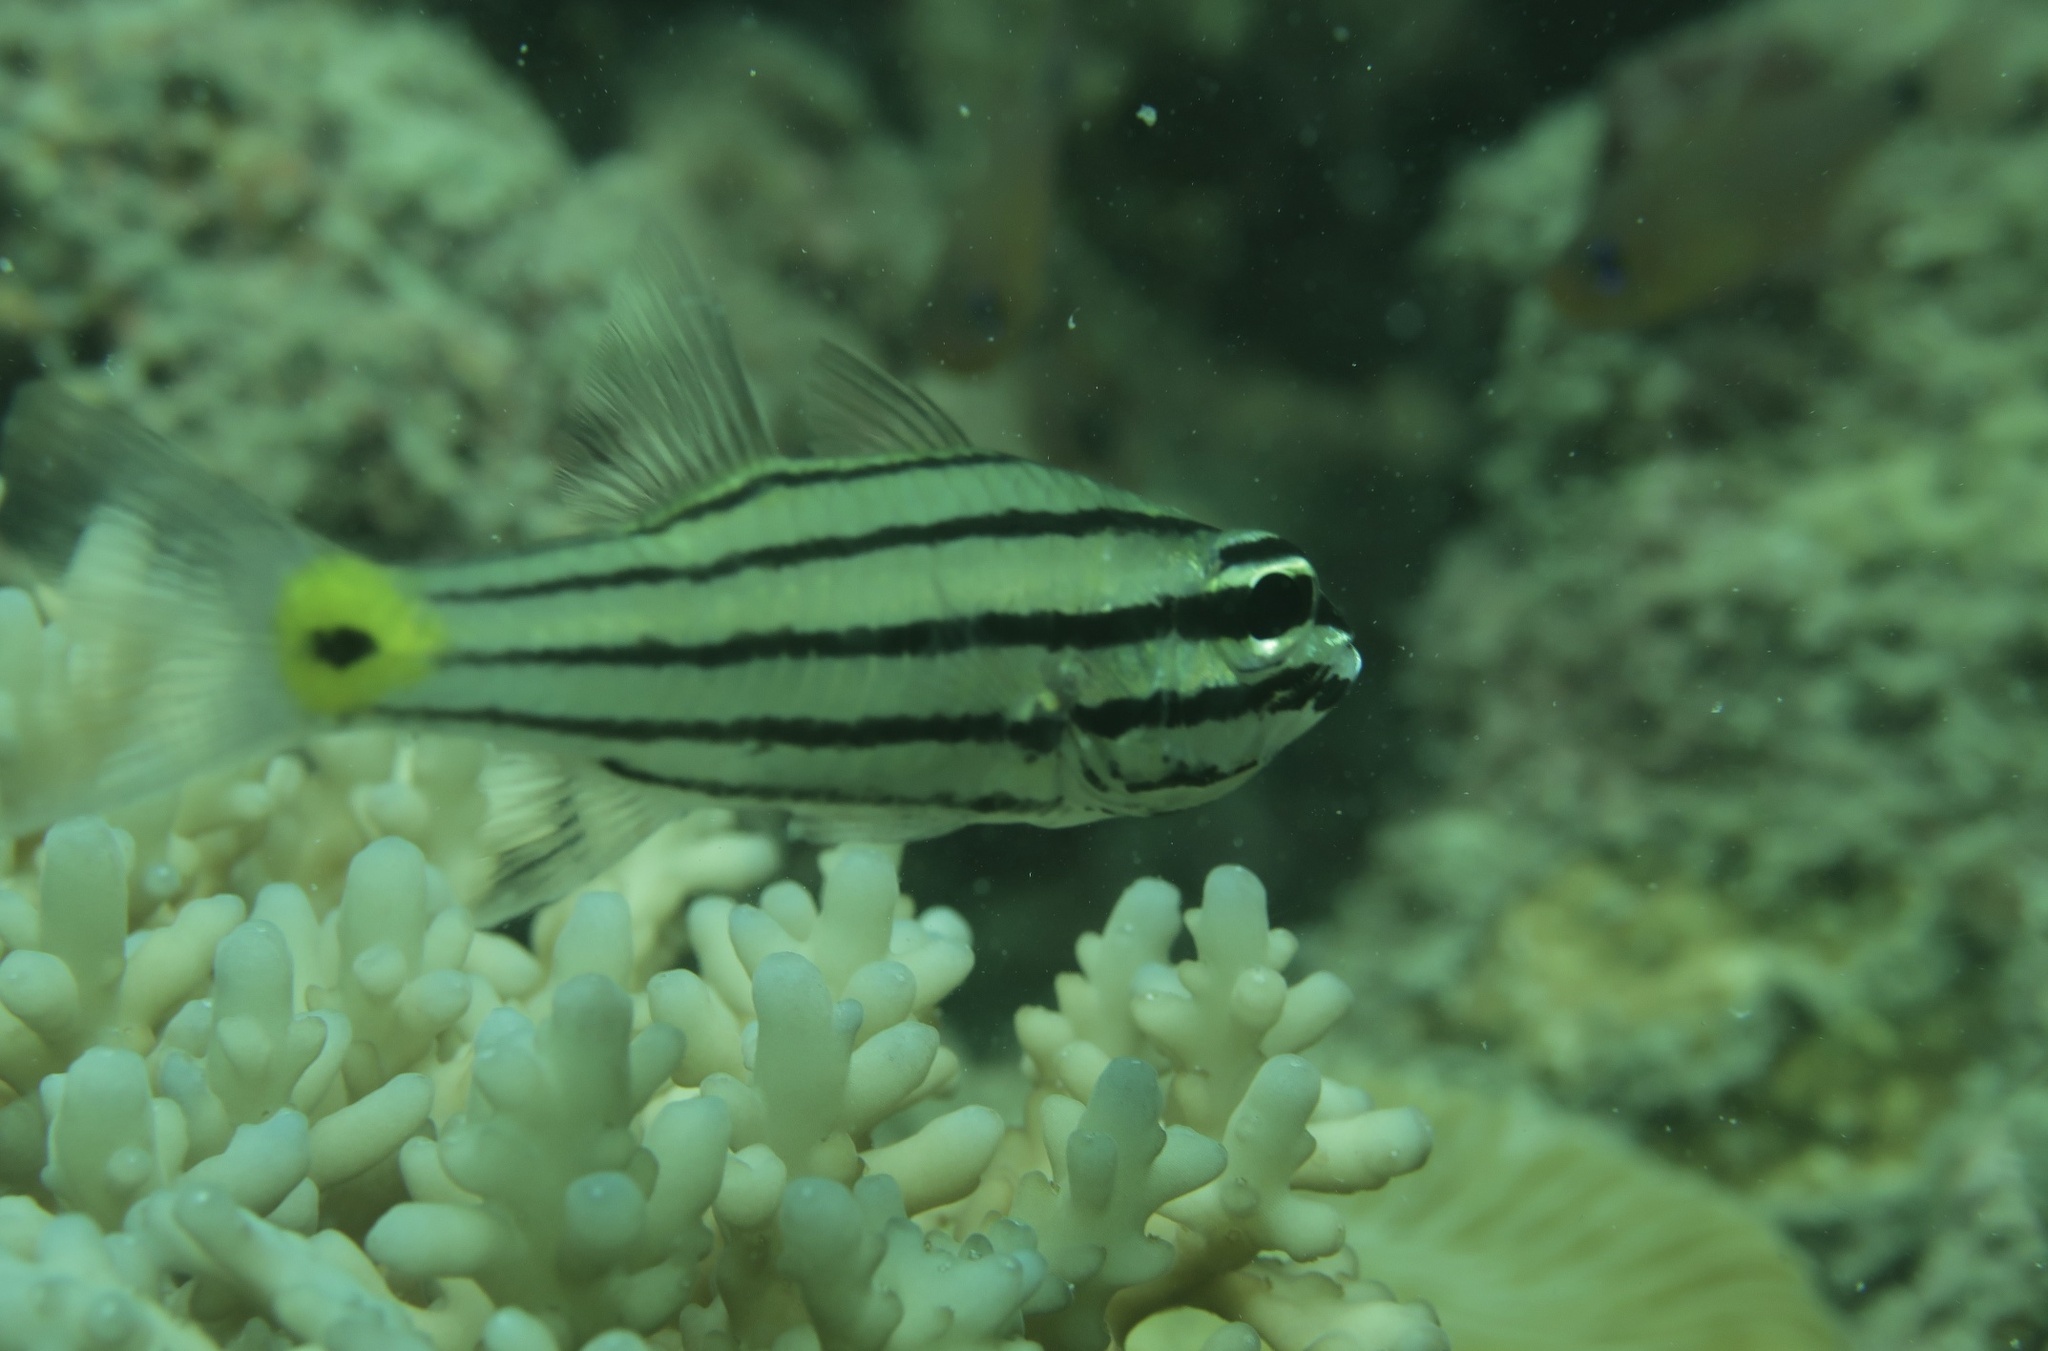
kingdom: Animalia
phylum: Chordata
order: Perciformes
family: Apogonidae
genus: Cheilodipterus
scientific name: Cheilodipterus quinquelineatus
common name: Five-lined cardinalfish
